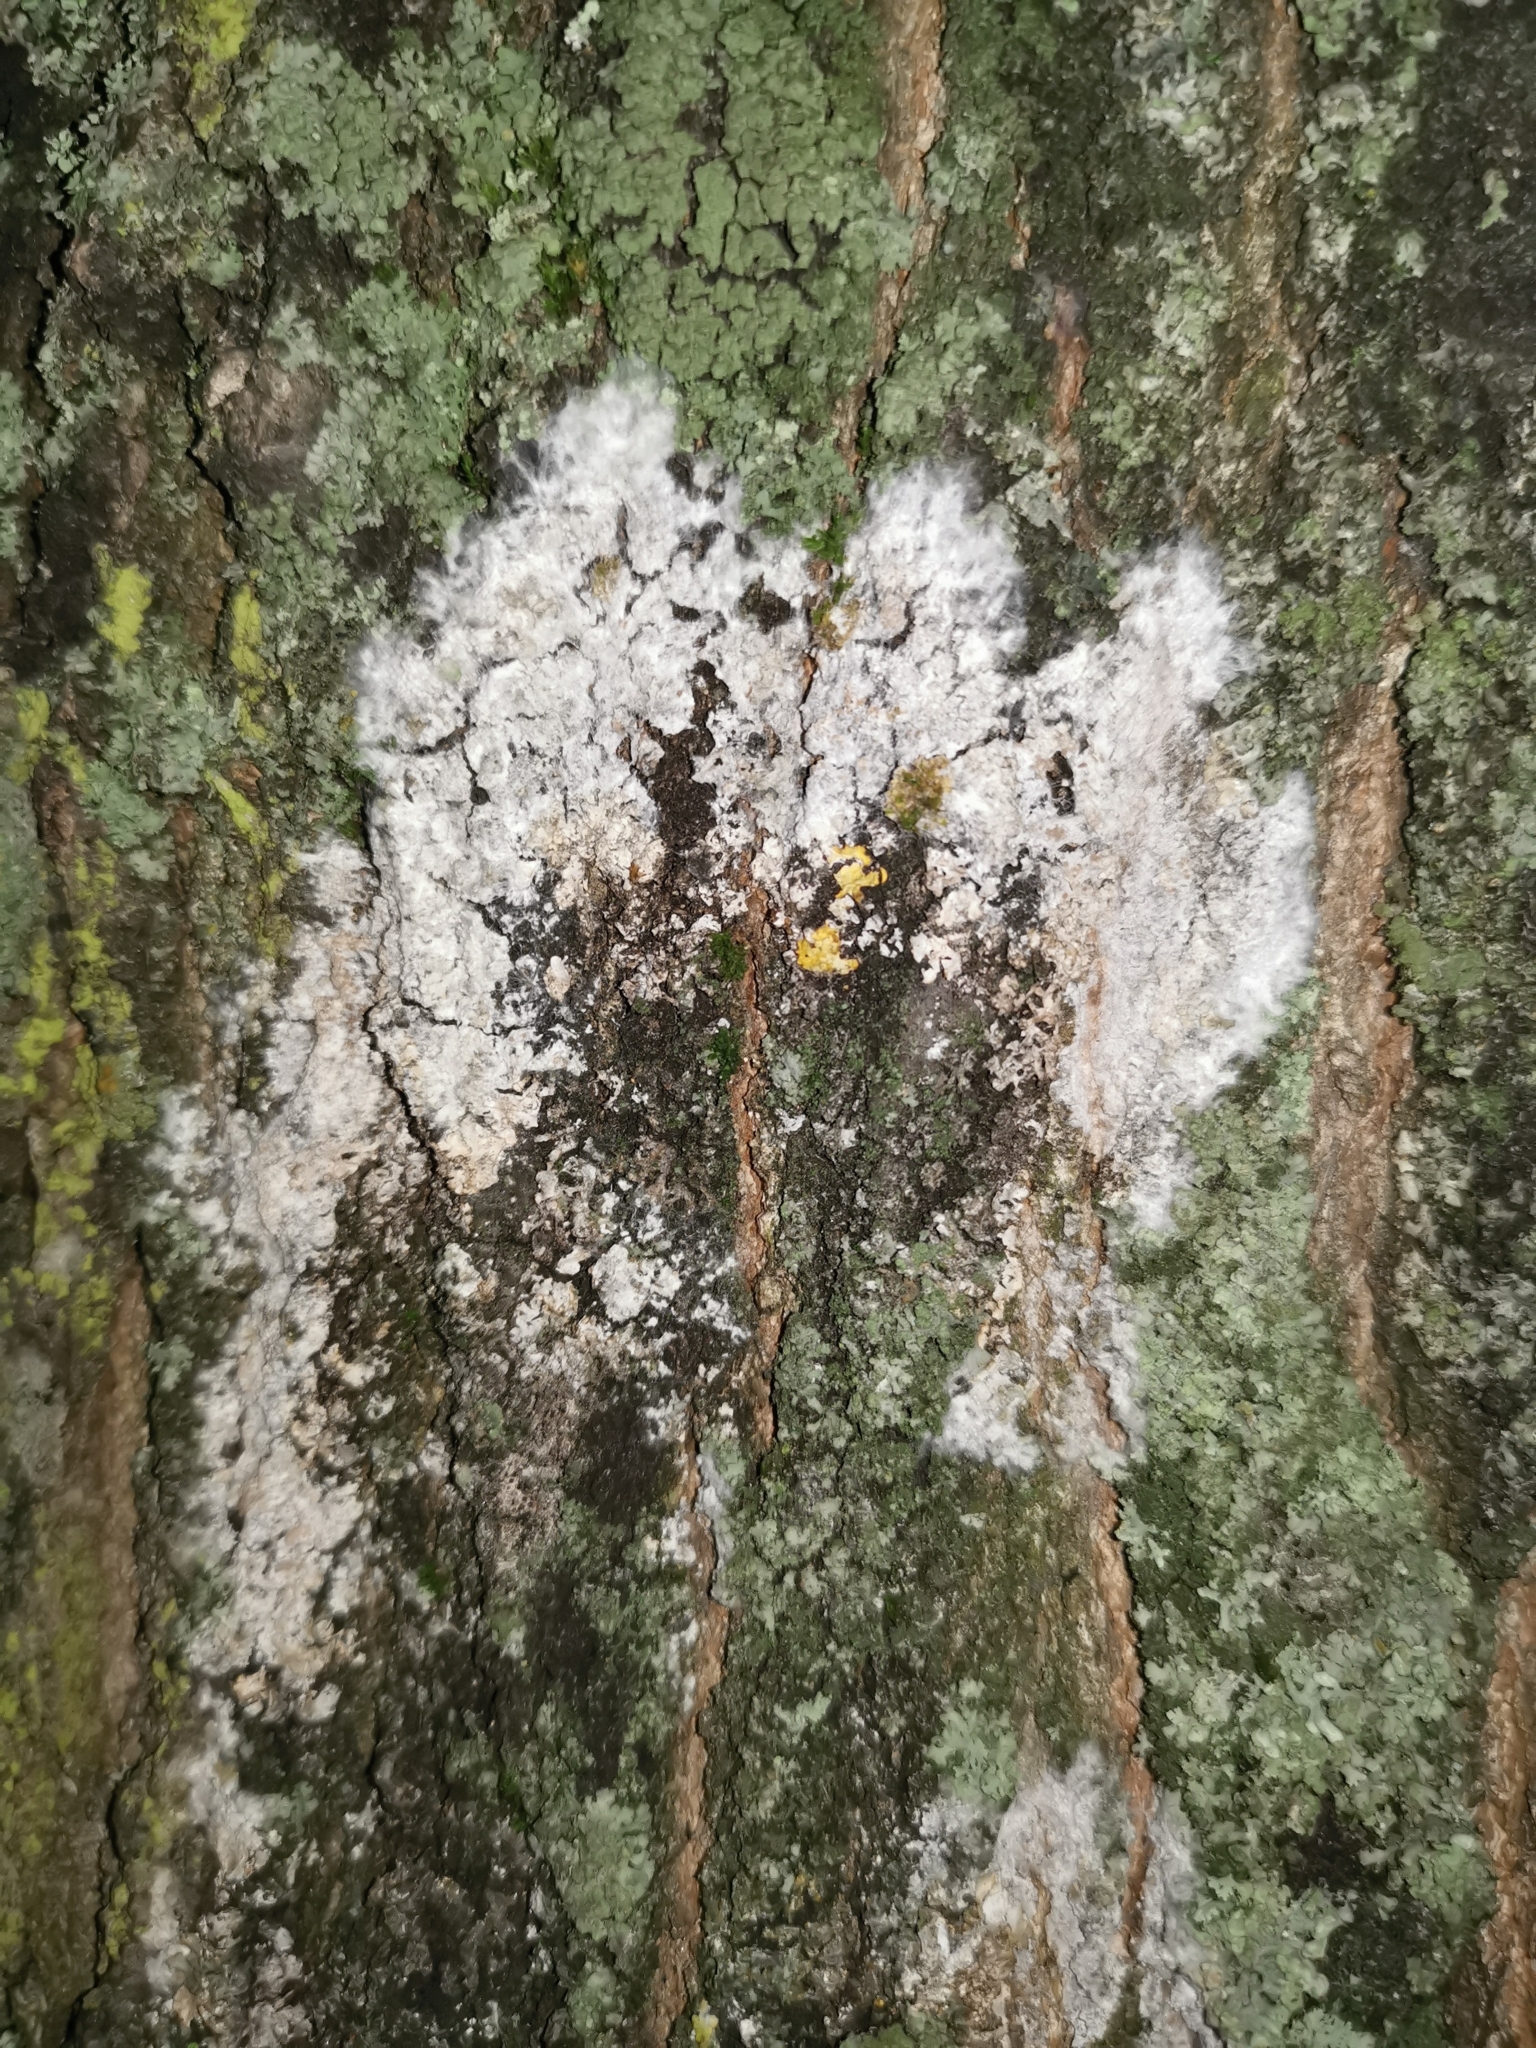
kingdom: Fungi
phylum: Basidiomycota
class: Agaricomycetes
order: Atheliales
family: Atheliaceae
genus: Athelia
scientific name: Athelia arachnoidea
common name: Candelabra duster
